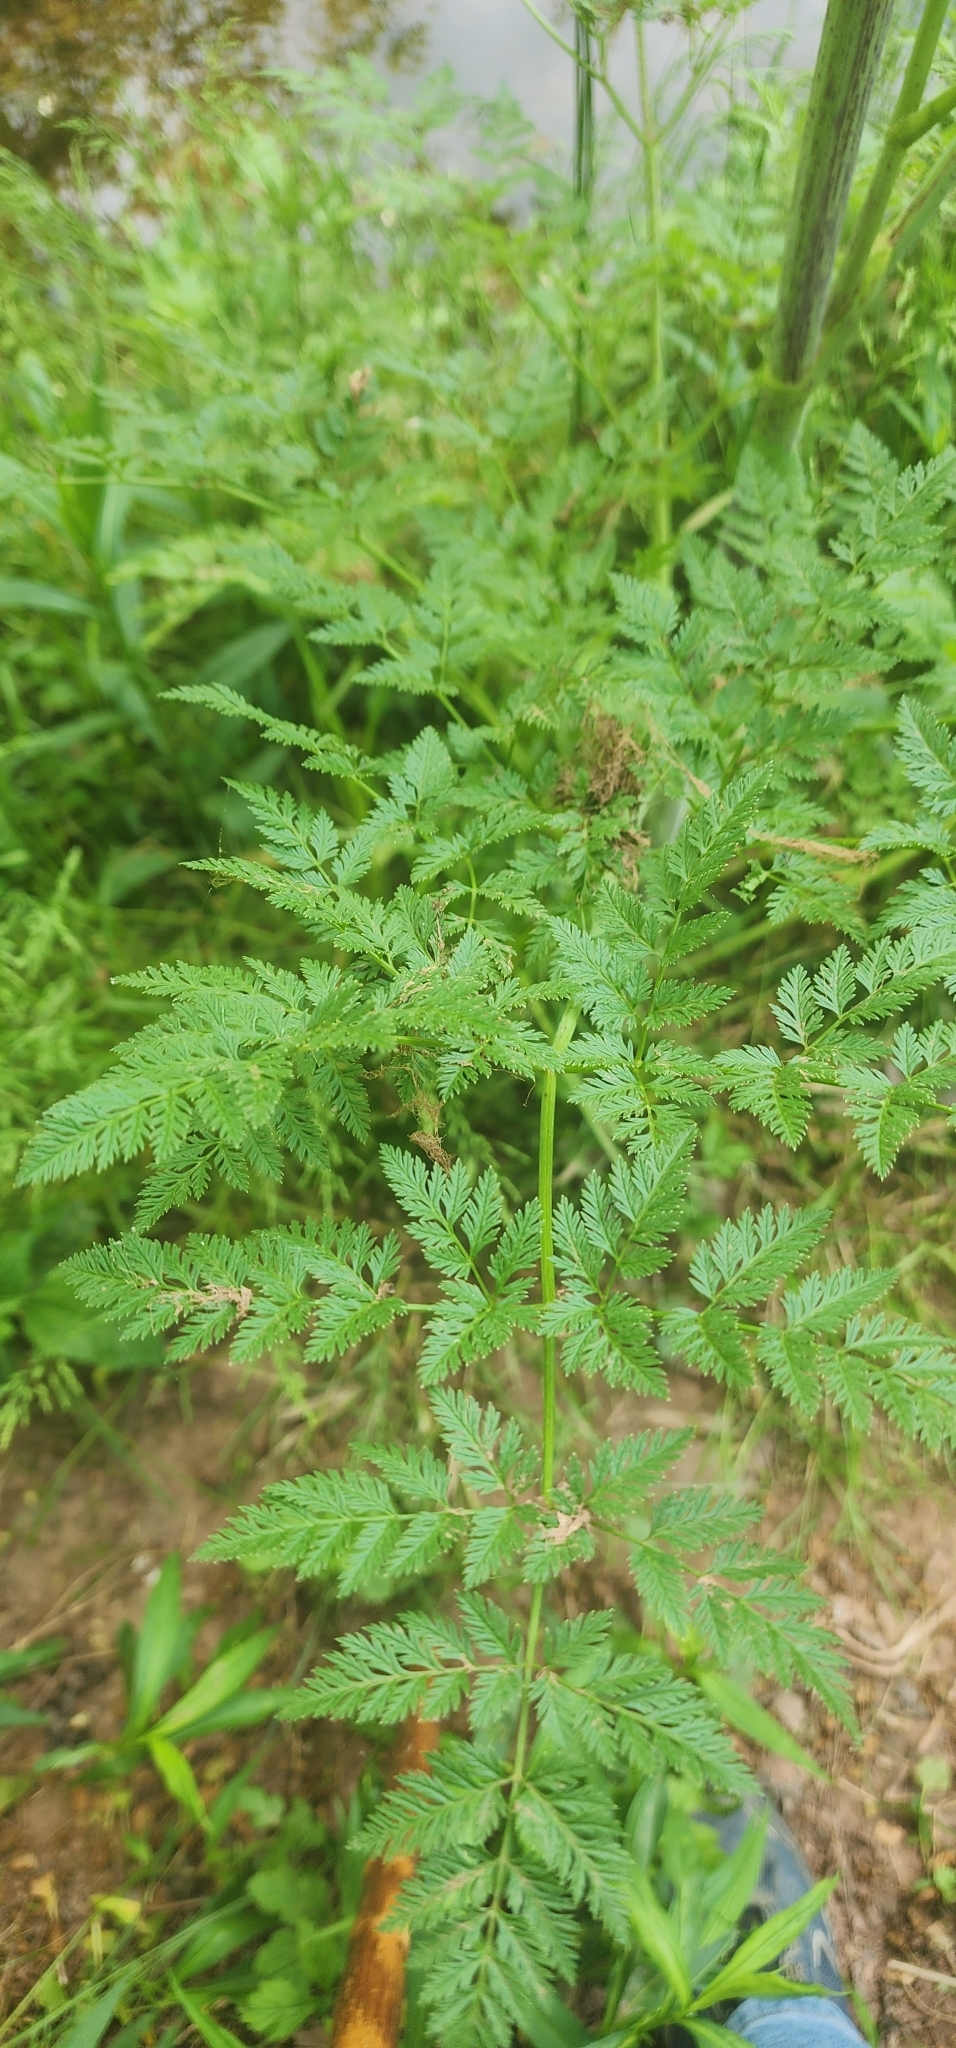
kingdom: Plantae
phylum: Tracheophyta
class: Magnoliopsida
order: Apiales
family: Apiaceae
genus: Conium
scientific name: Conium maculatum
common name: Hemlock
